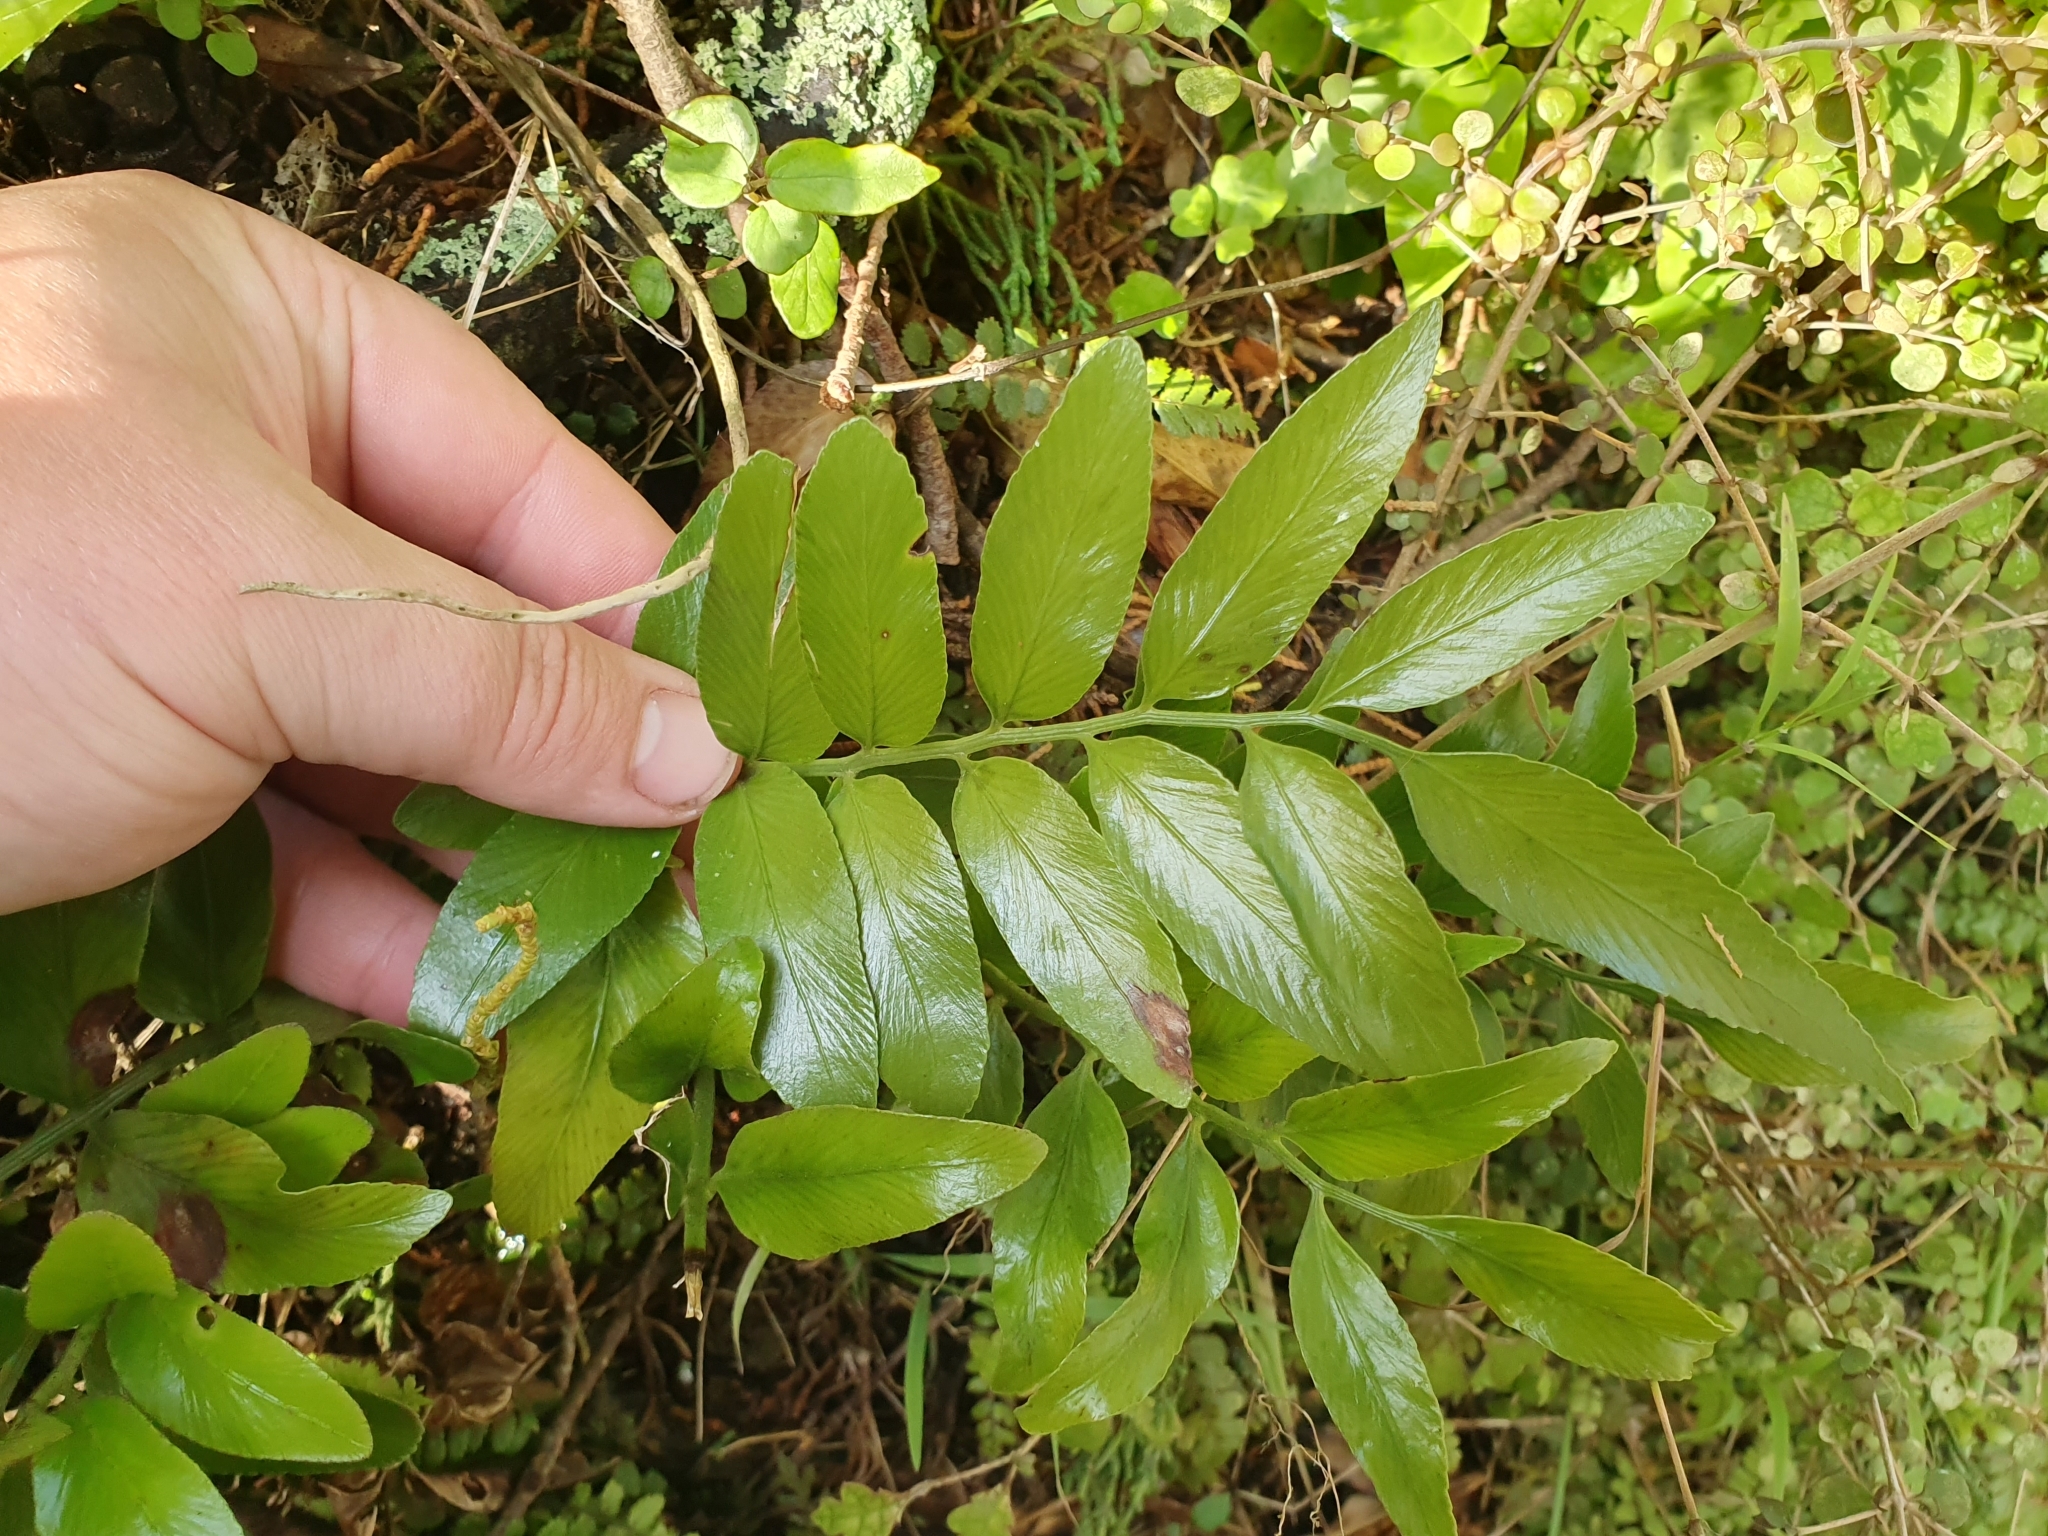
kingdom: Plantae
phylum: Tracheophyta
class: Polypodiopsida
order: Polypodiales
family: Aspleniaceae
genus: Asplenium
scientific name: Asplenium oblongifolium
